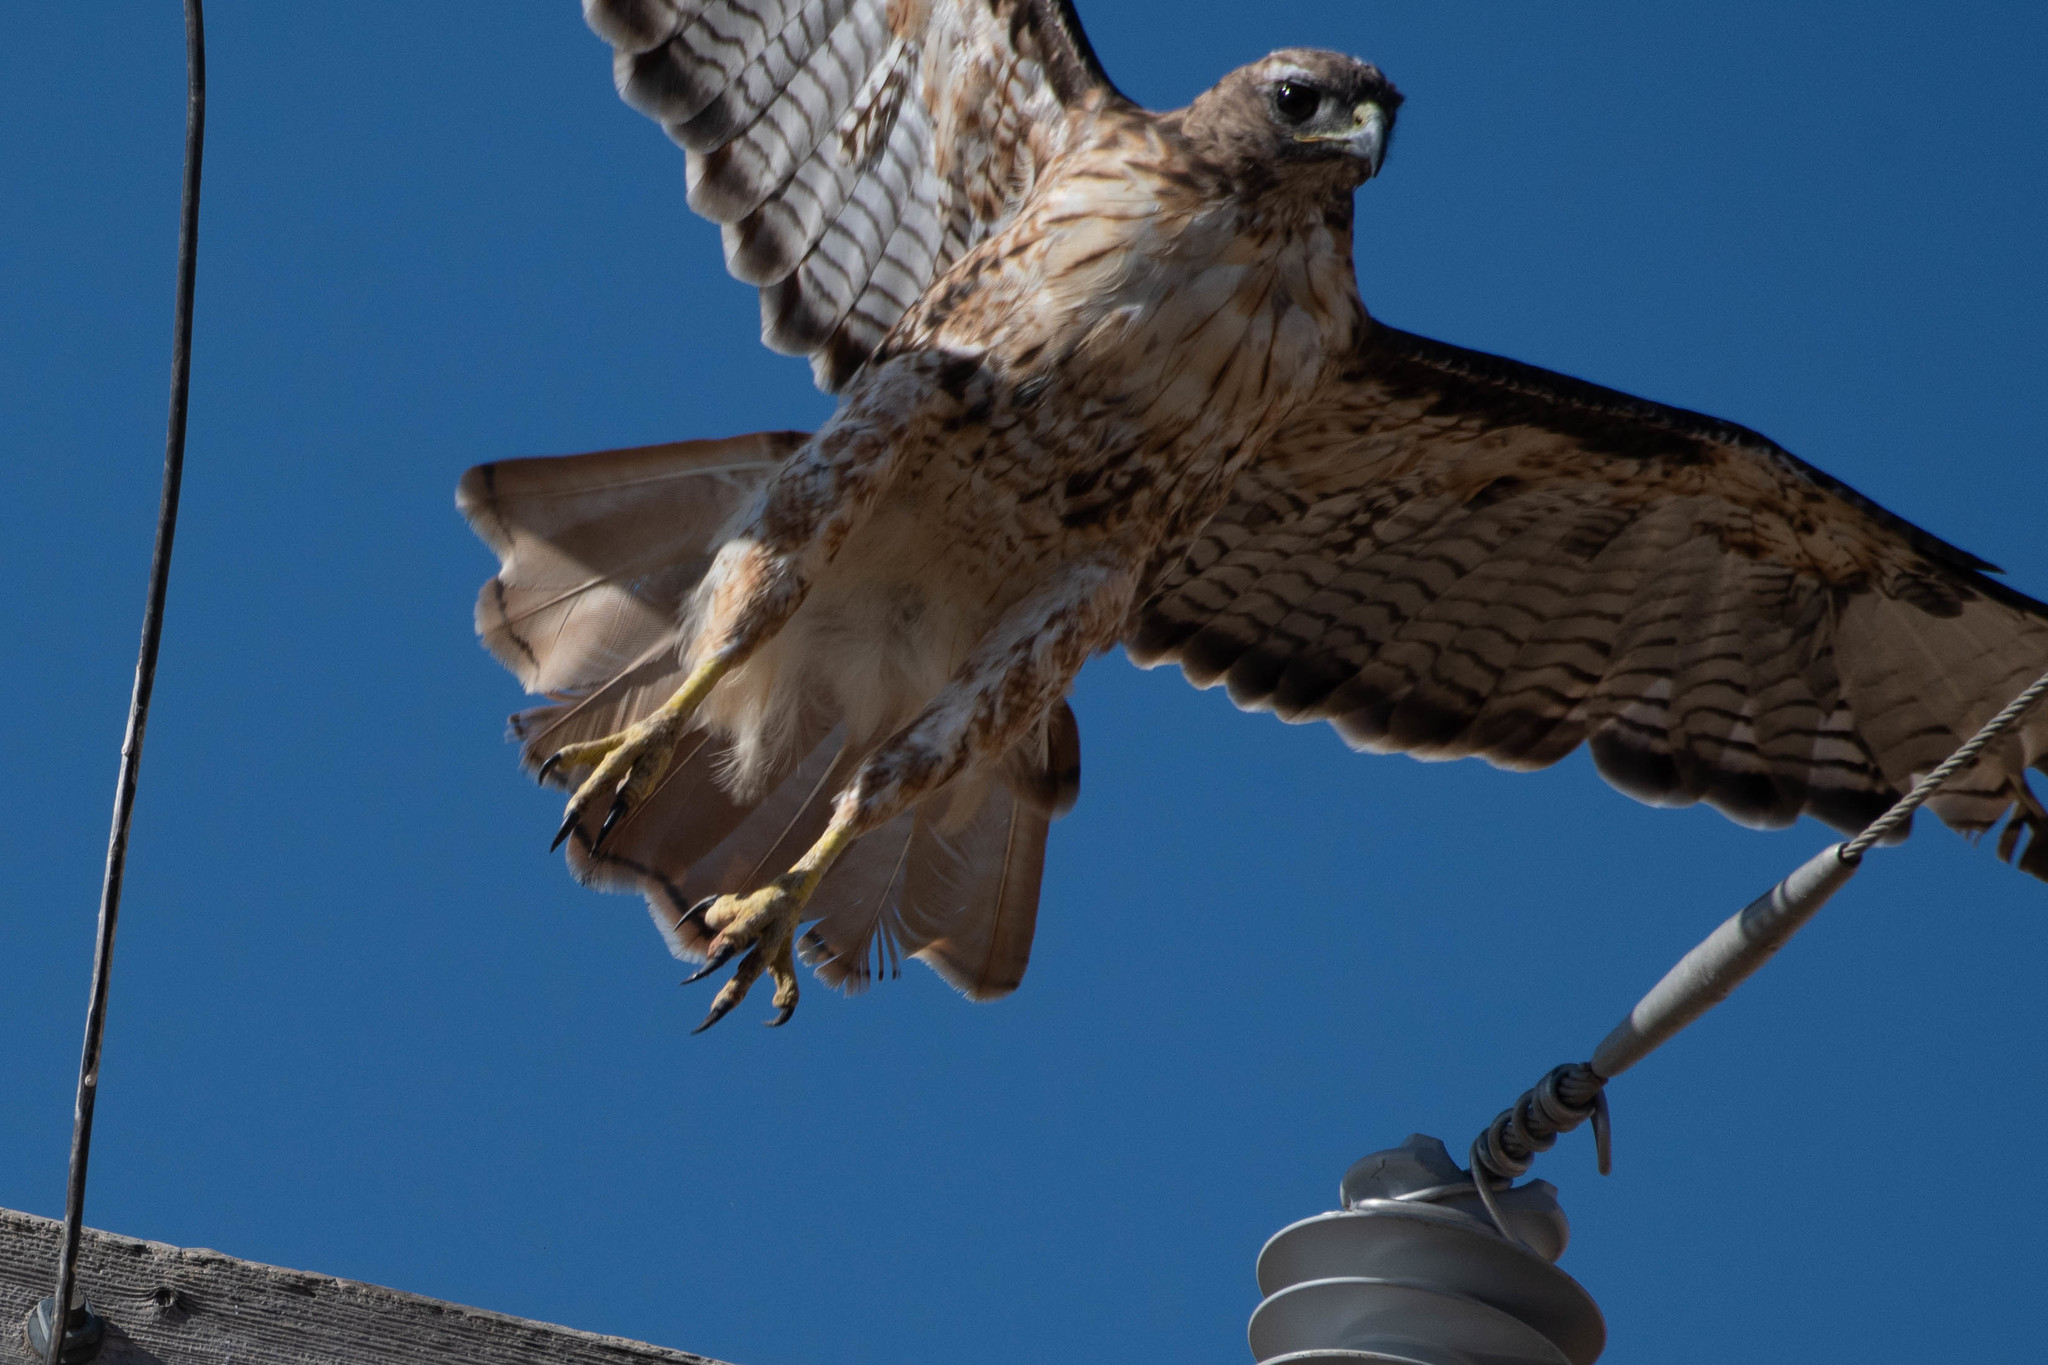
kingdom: Animalia
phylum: Chordata
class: Aves
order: Accipitriformes
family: Accipitridae
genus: Buteo
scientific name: Buteo jamaicensis
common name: Red-tailed hawk
